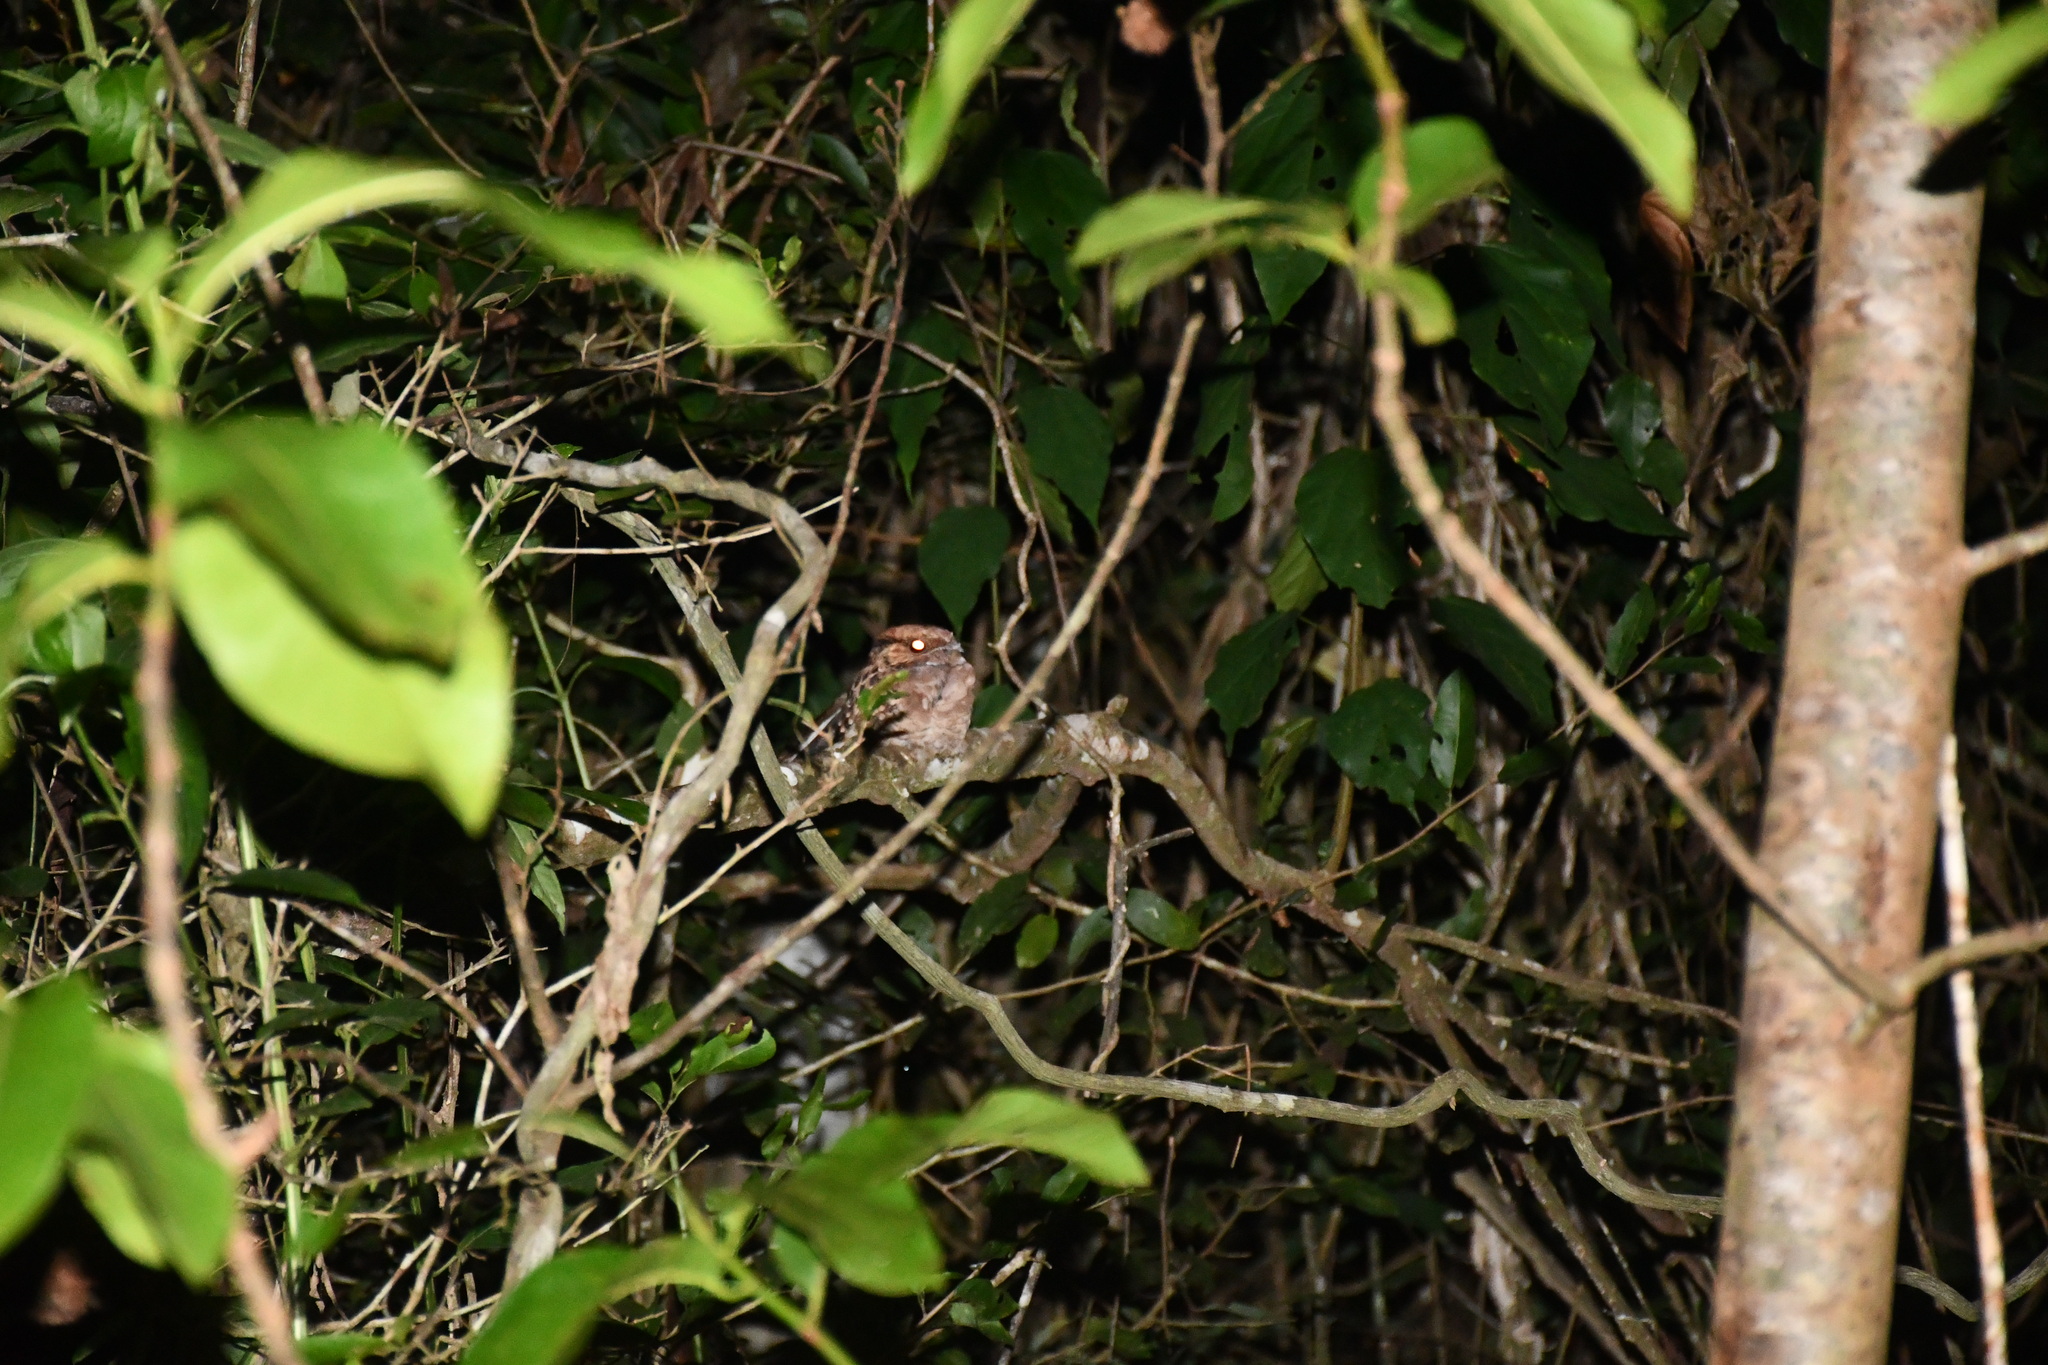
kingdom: Animalia
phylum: Chordata
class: Aves
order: Caprimulgiformes
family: Caprimulgidae
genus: Nyctidromus
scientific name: Nyctidromus albicollis
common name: Pauraque
